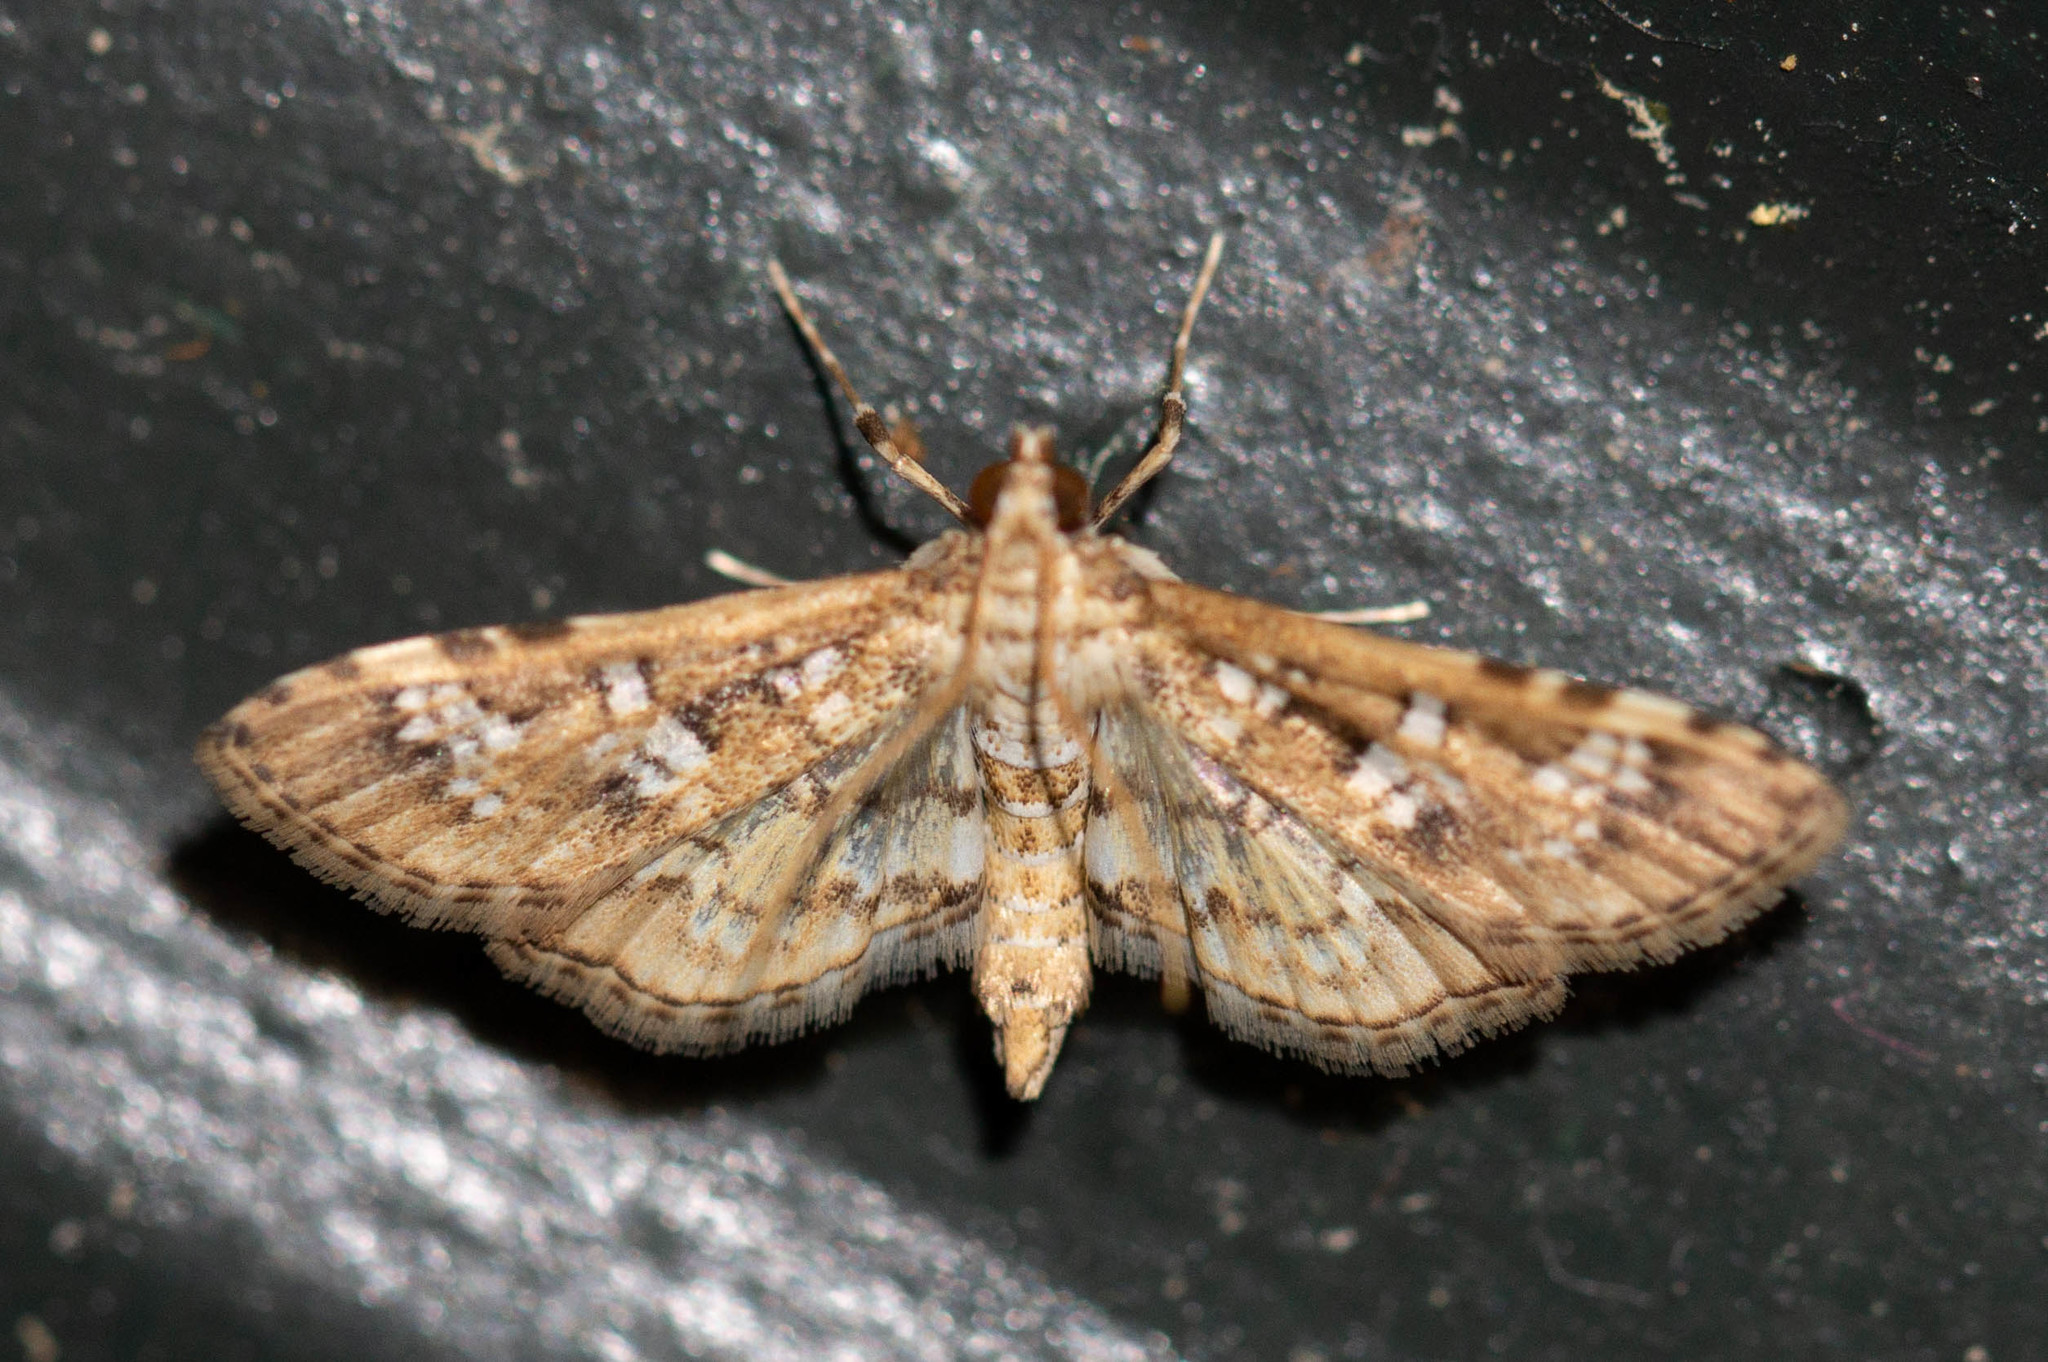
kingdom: Animalia
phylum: Arthropoda
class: Insecta
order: Lepidoptera
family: Crambidae
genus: Samea
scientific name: Samea multiplicalis
